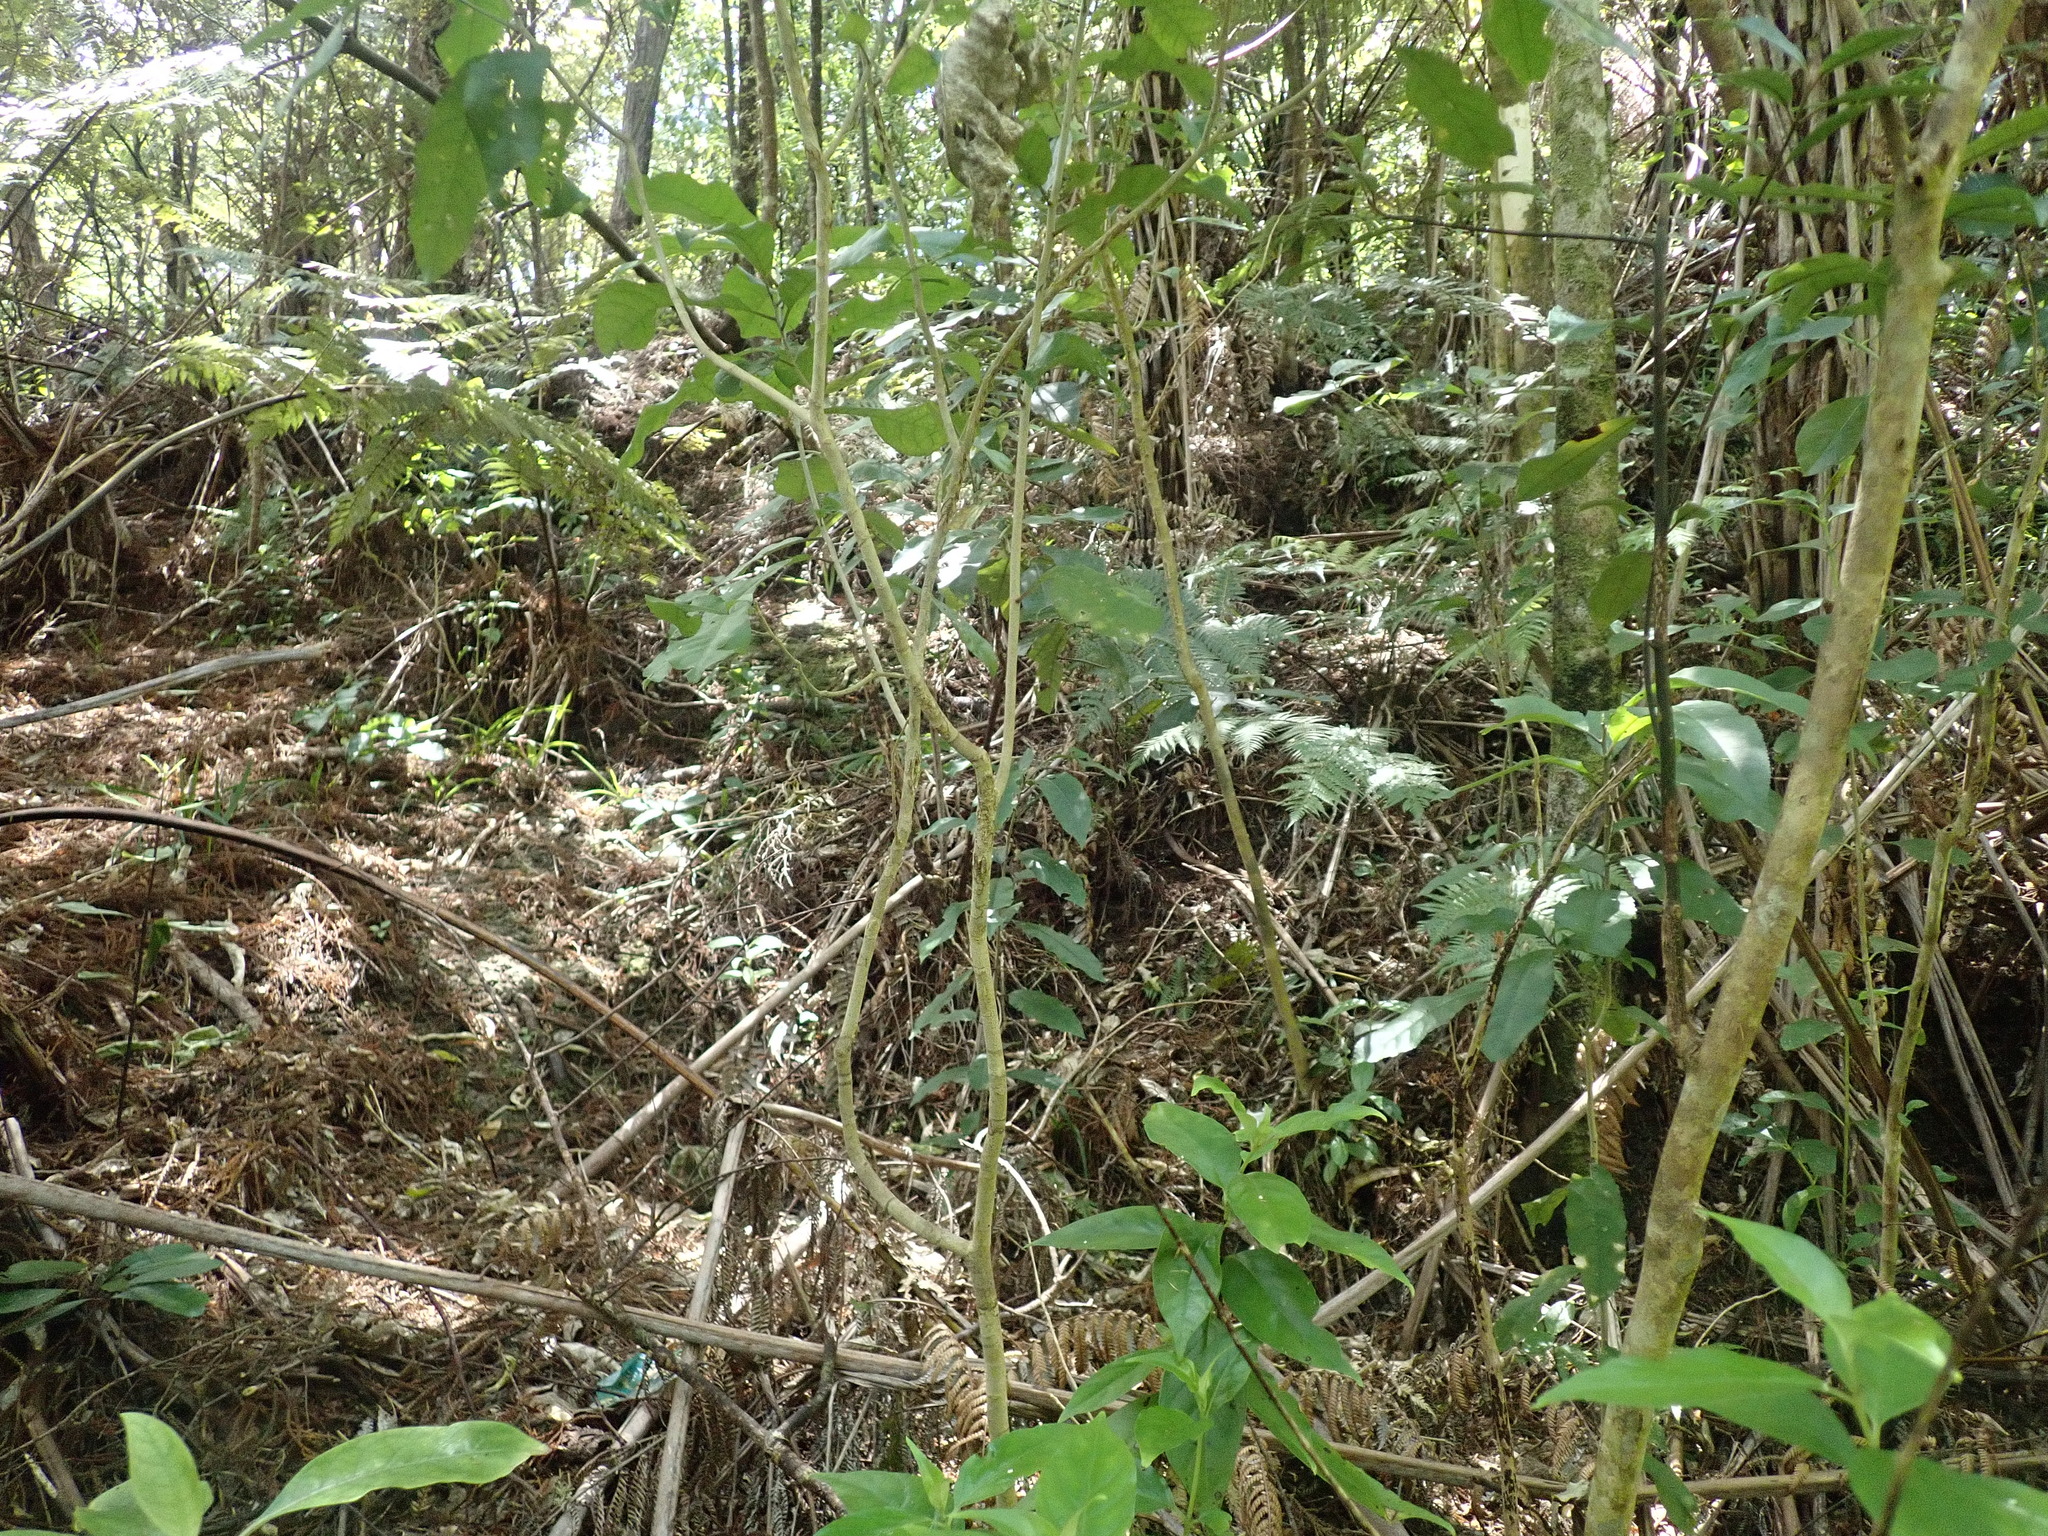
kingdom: Plantae
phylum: Tracheophyta
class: Magnoliopsida
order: Malpighiales
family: Violaceae
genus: Melicytus
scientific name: Melicytus ramiflorus
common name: Mahoe
